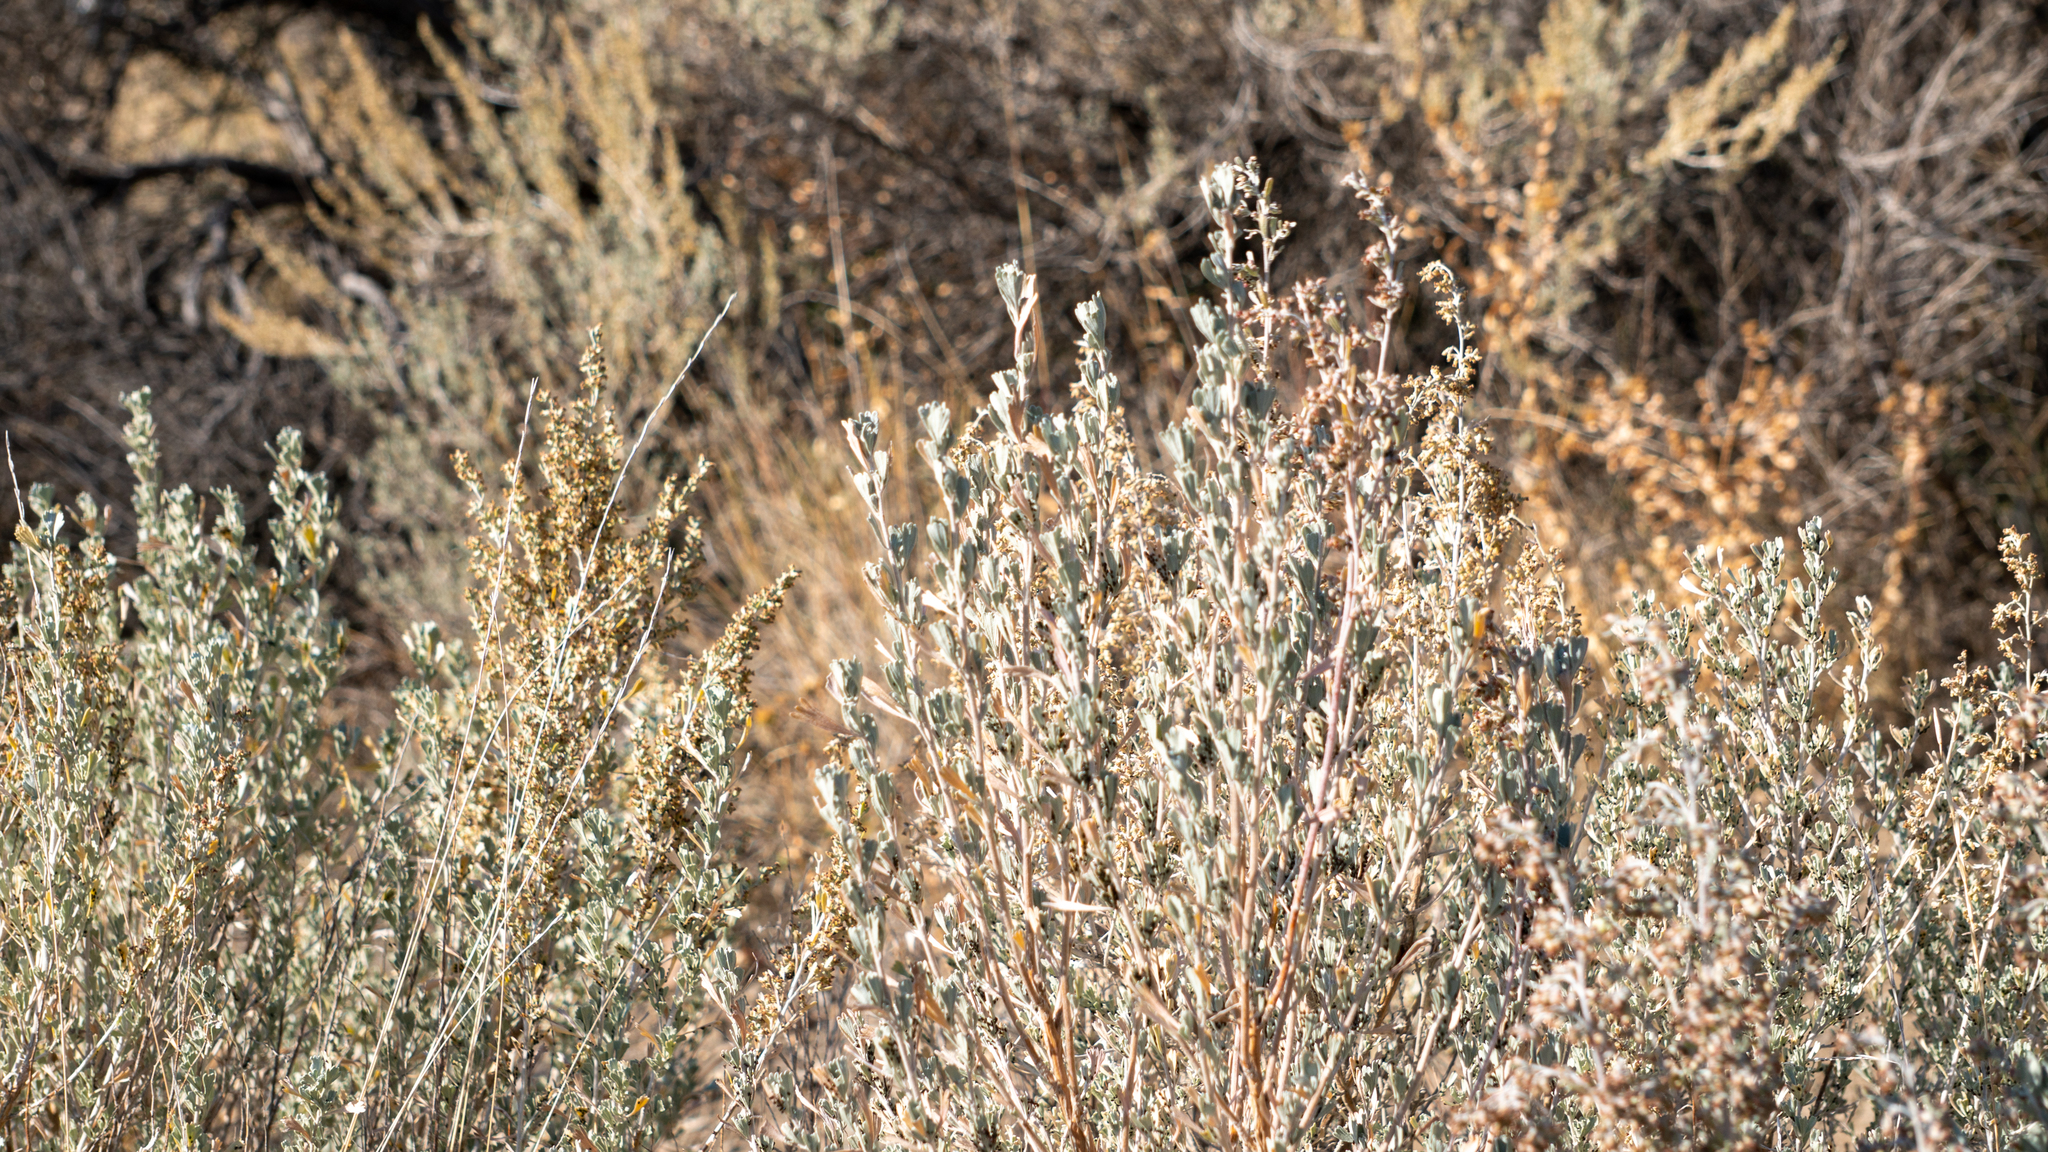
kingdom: Plantae
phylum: Tracheophyta
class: Magnoliopsida
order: Asterales
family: Asteraceae
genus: Artemisia
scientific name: Artemisia tridentata
